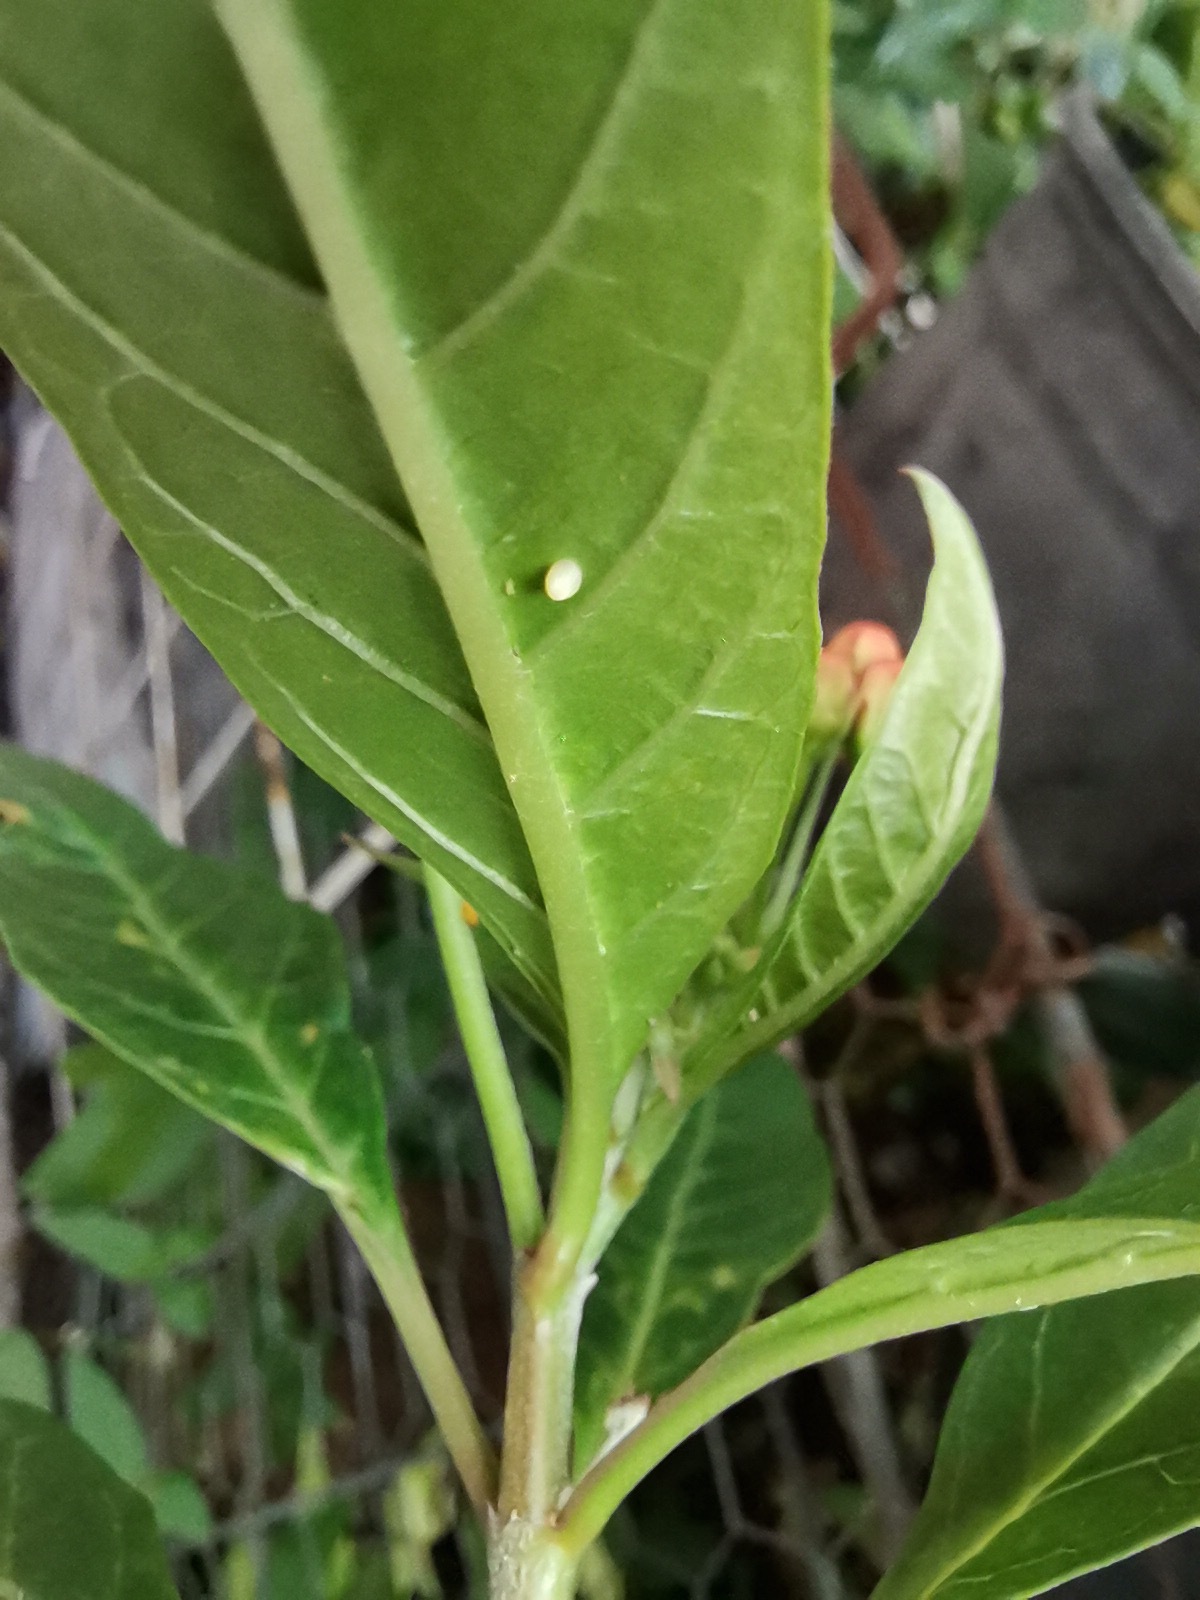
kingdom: Animalia
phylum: Arthropoda
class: Insecta
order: Lepidoptera
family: Nymphalidae
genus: Danaus
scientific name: Danaus plexippus
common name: Monarch
